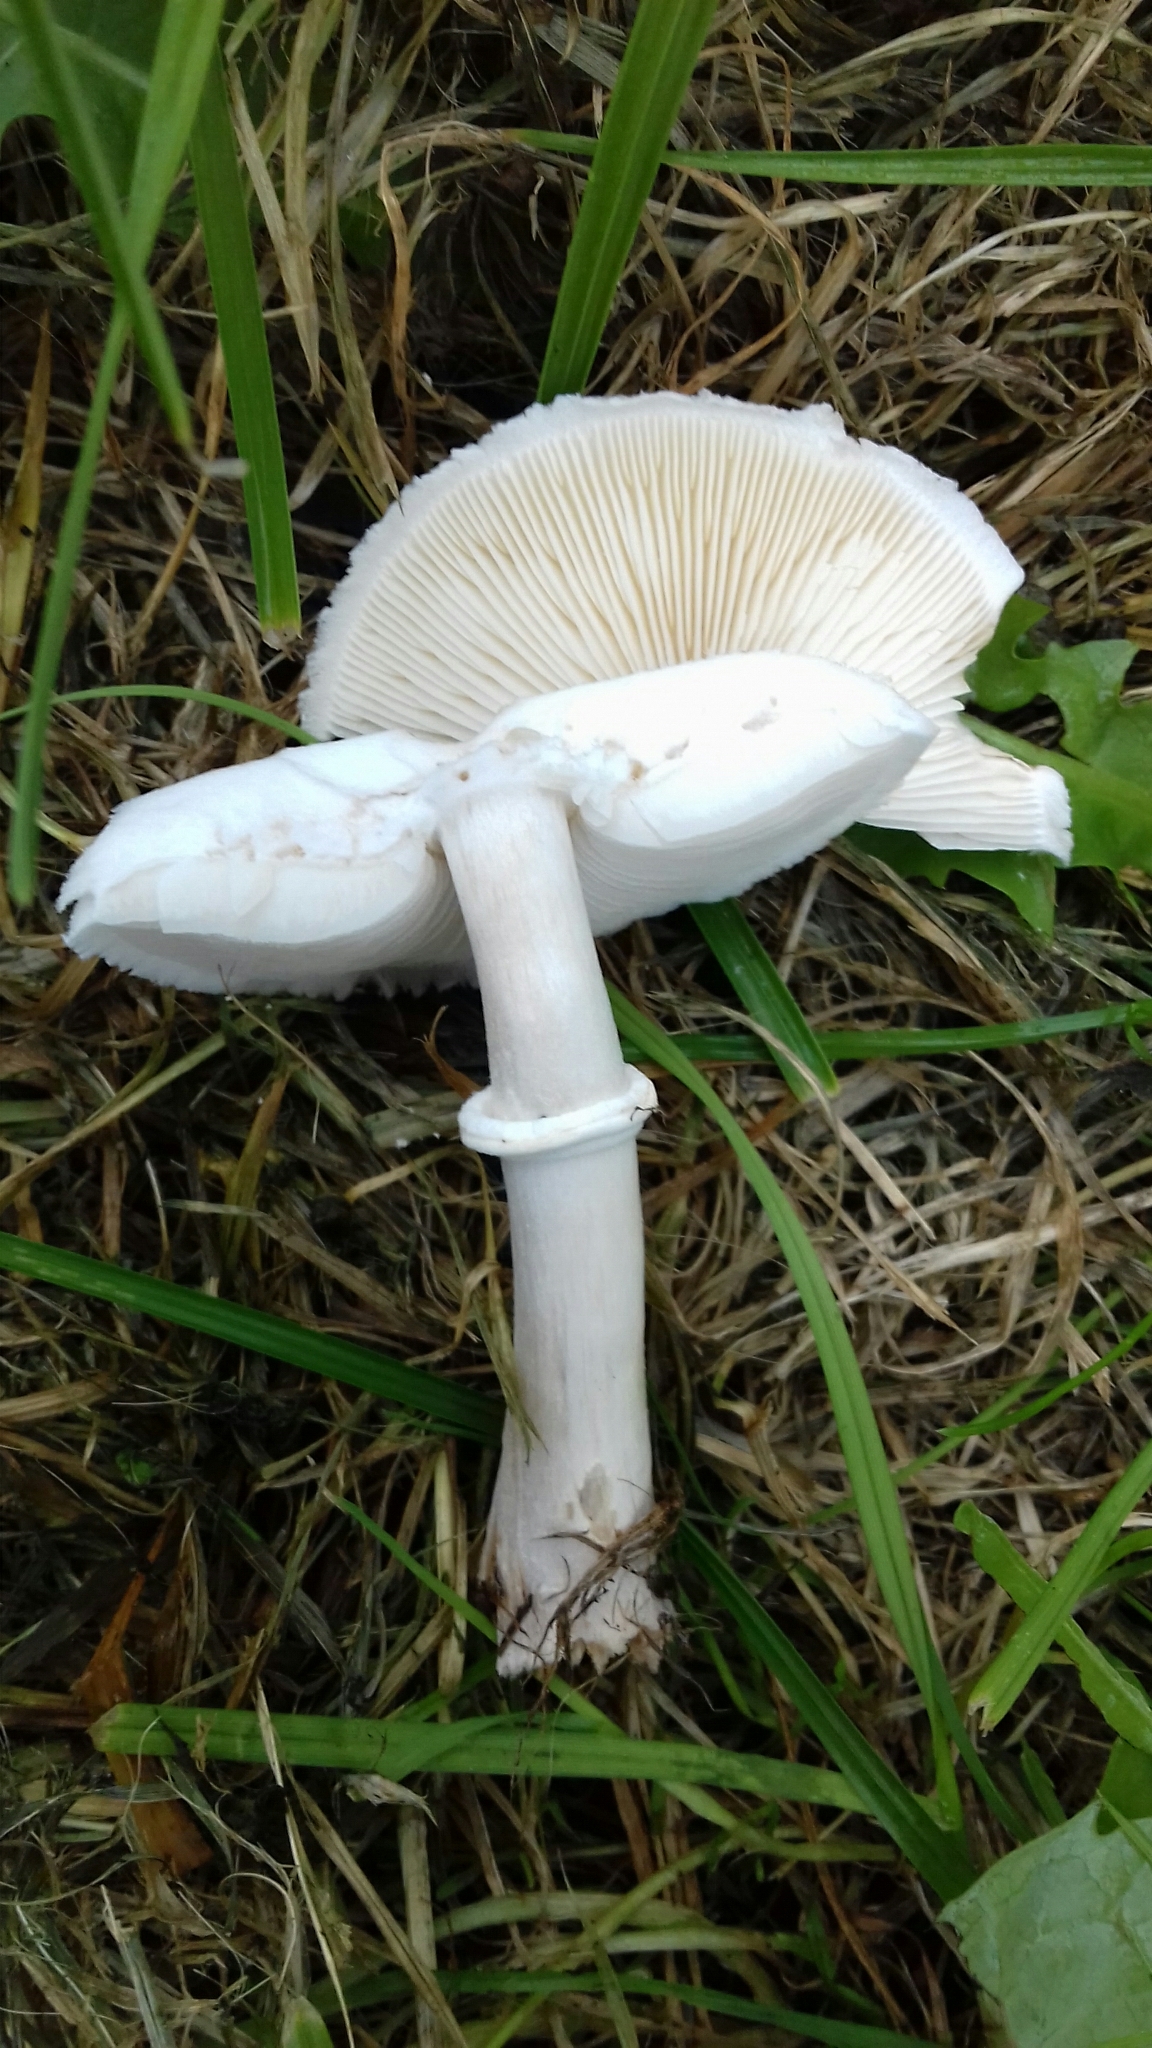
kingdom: Fungi
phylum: Basidiomycota
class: Agaricomycetes
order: Agaricales
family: Agaricaceae
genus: Leucoagaricus
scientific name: Leucoagaricus leucothites
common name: White dapperling
